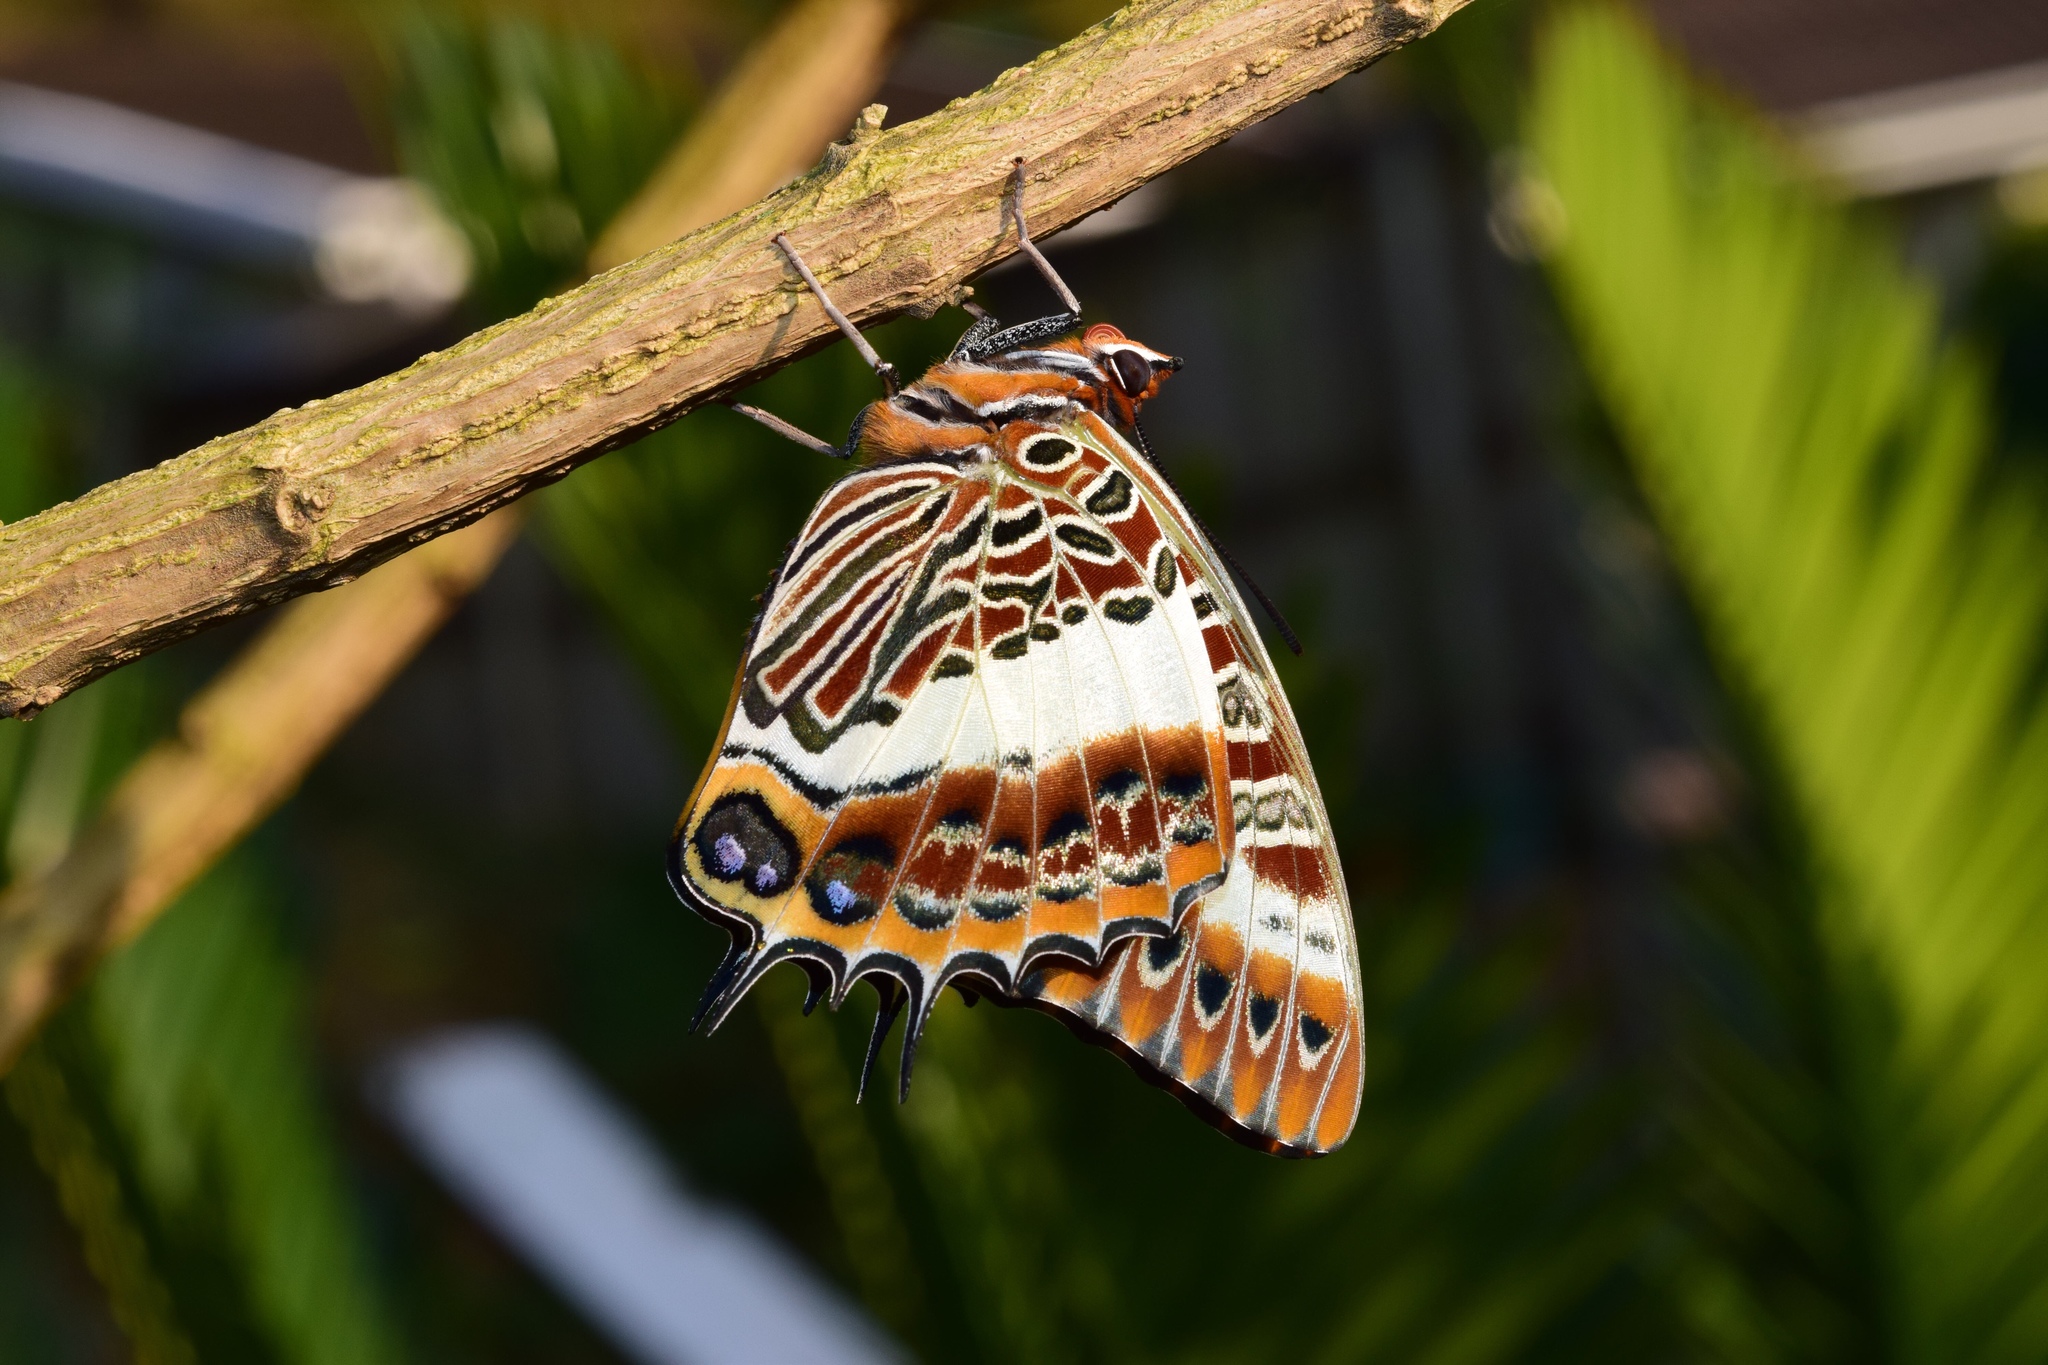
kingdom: Animalia
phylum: Arthropoda
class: Insecta
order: Lepidoptera
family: Nymphalidae
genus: Charaxes
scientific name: Charaxes brutus
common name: White-barred charaxes
